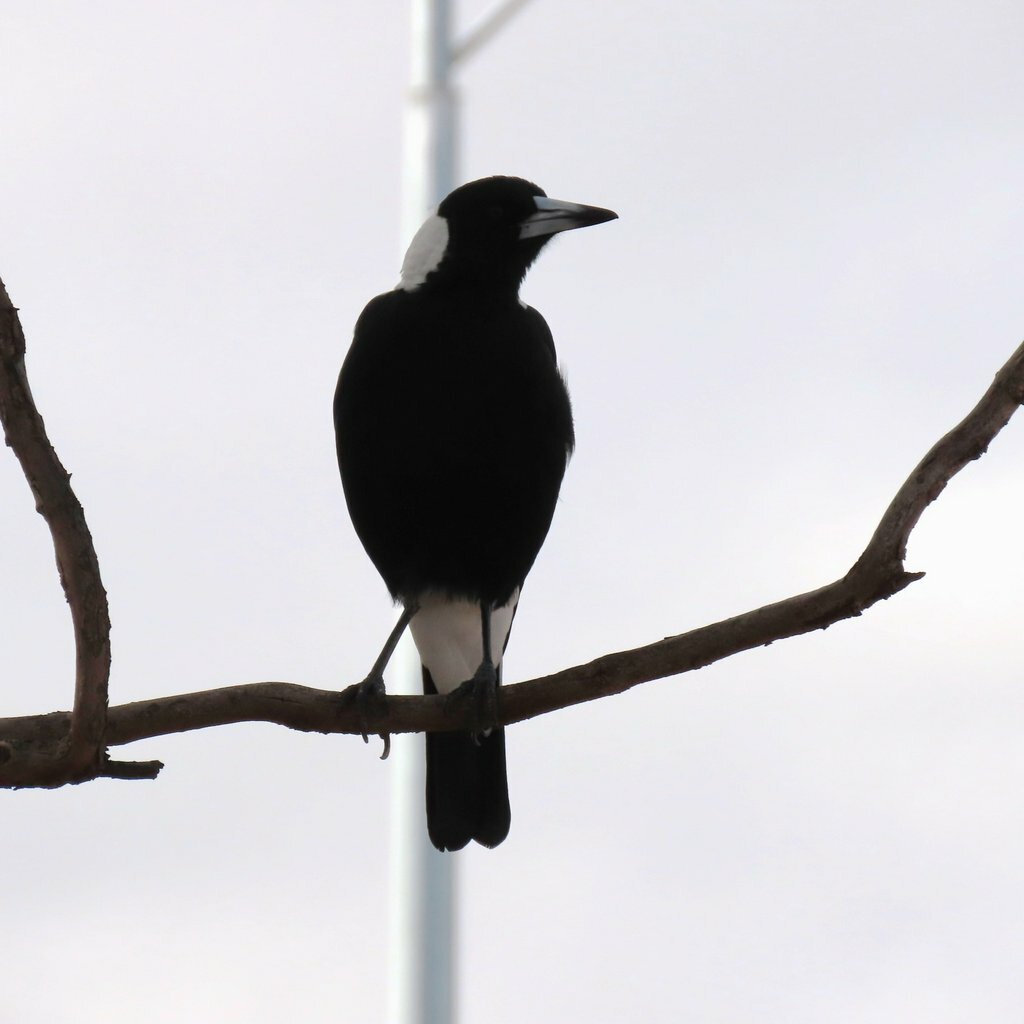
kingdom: Animalia
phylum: Chordata
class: Aves
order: Passeriformes
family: Cracticidae
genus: Gymnorhina
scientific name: Gymnorhina tibicen
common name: Australian magpie
